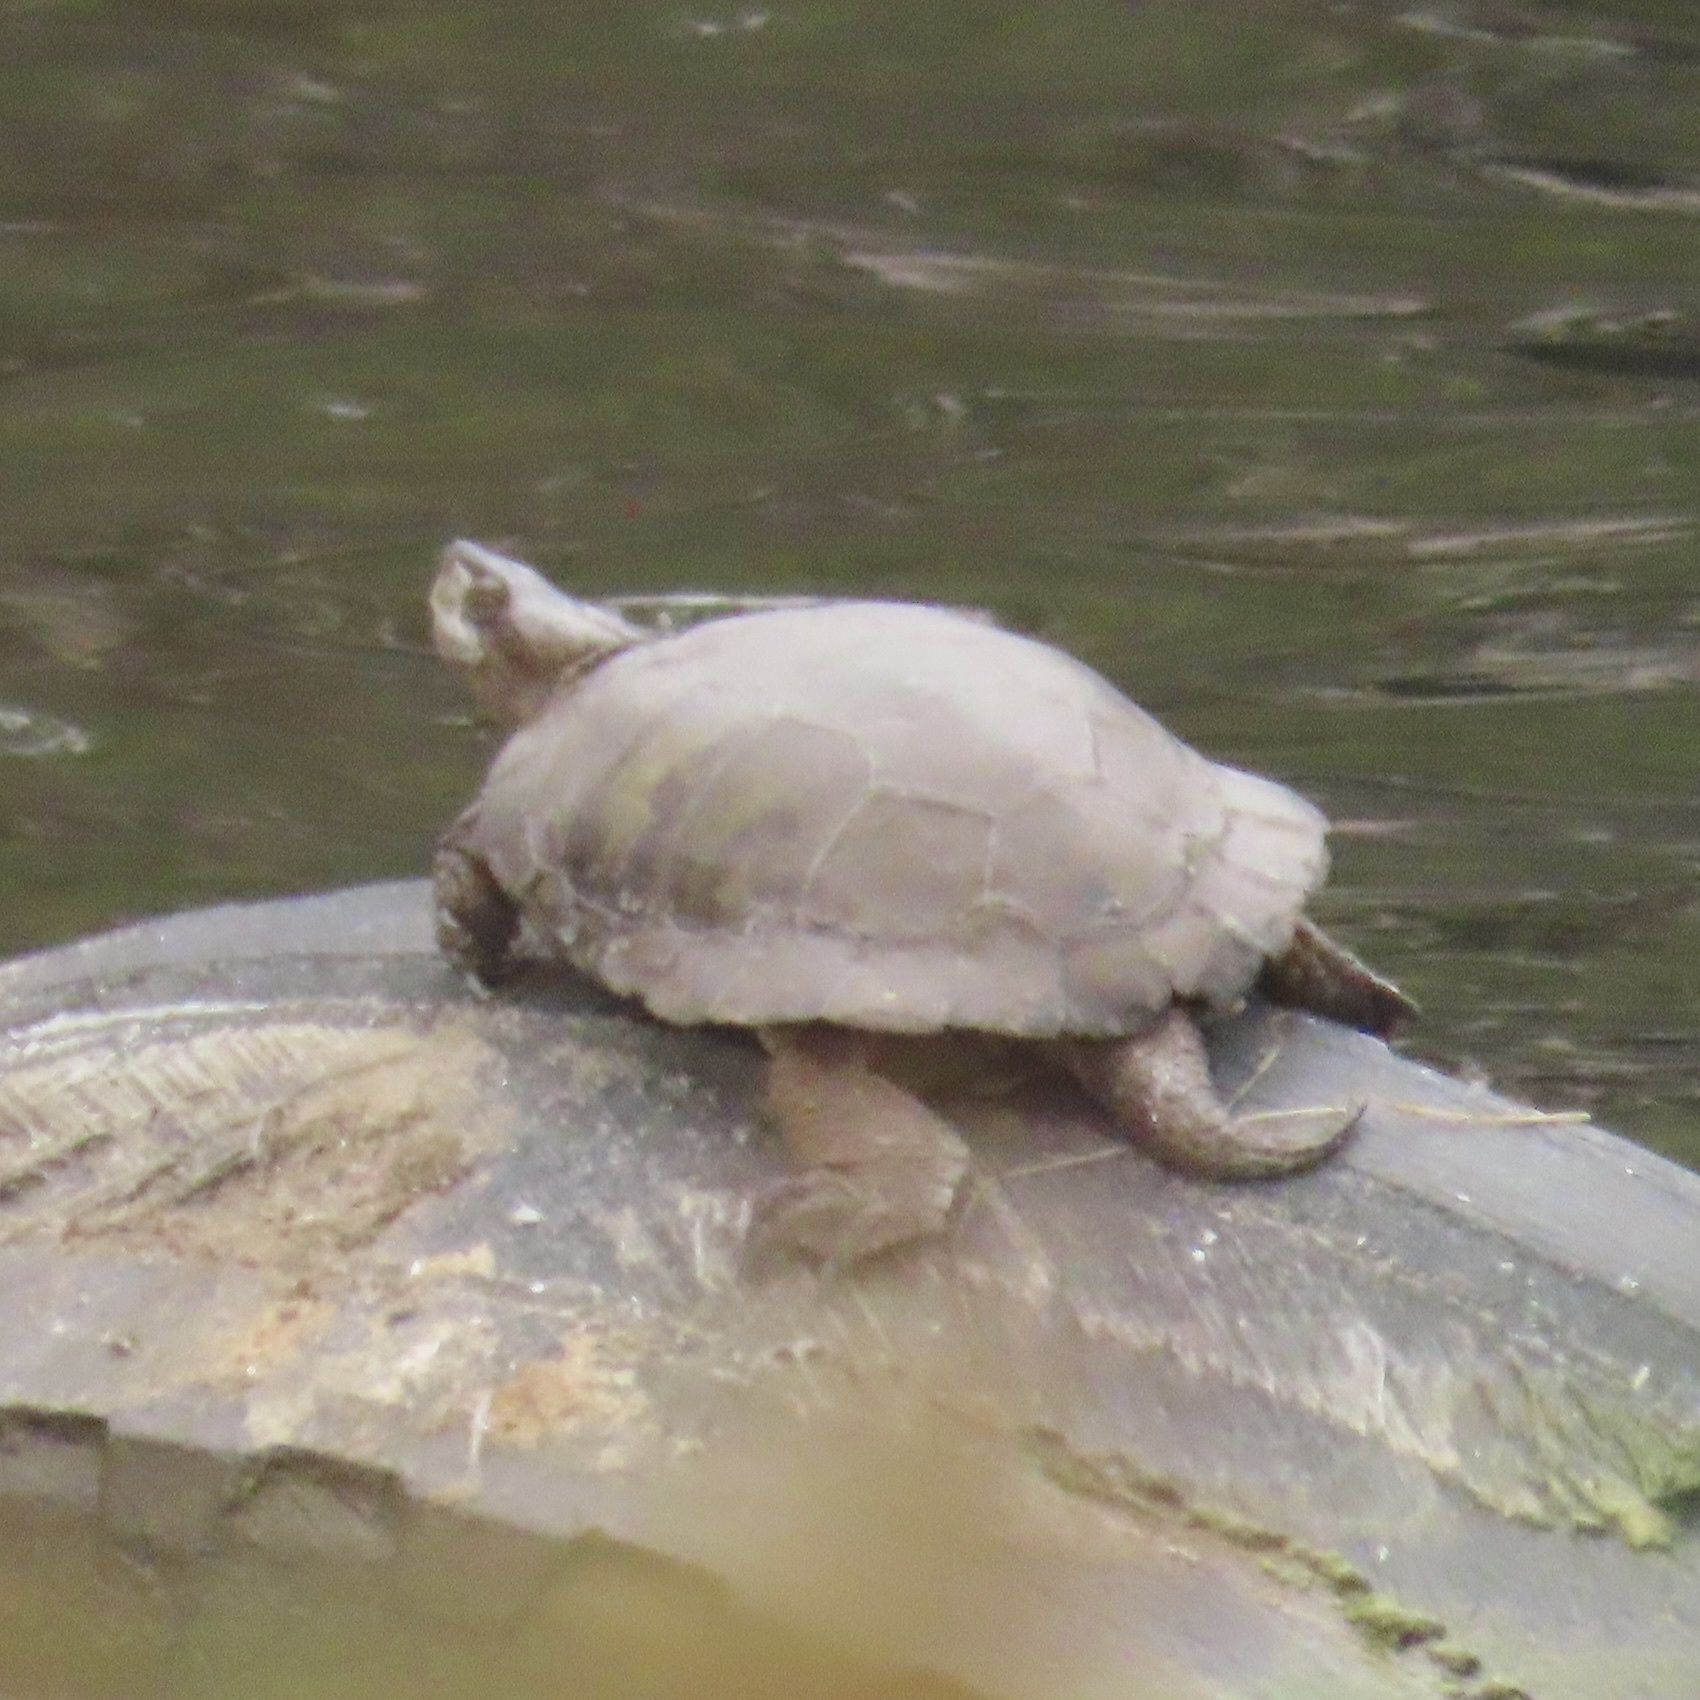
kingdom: Animalia
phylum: Chordata
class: Testudines
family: Emydidae
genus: Actinemys
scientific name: Actinemys marmorata
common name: Western pond turtle
